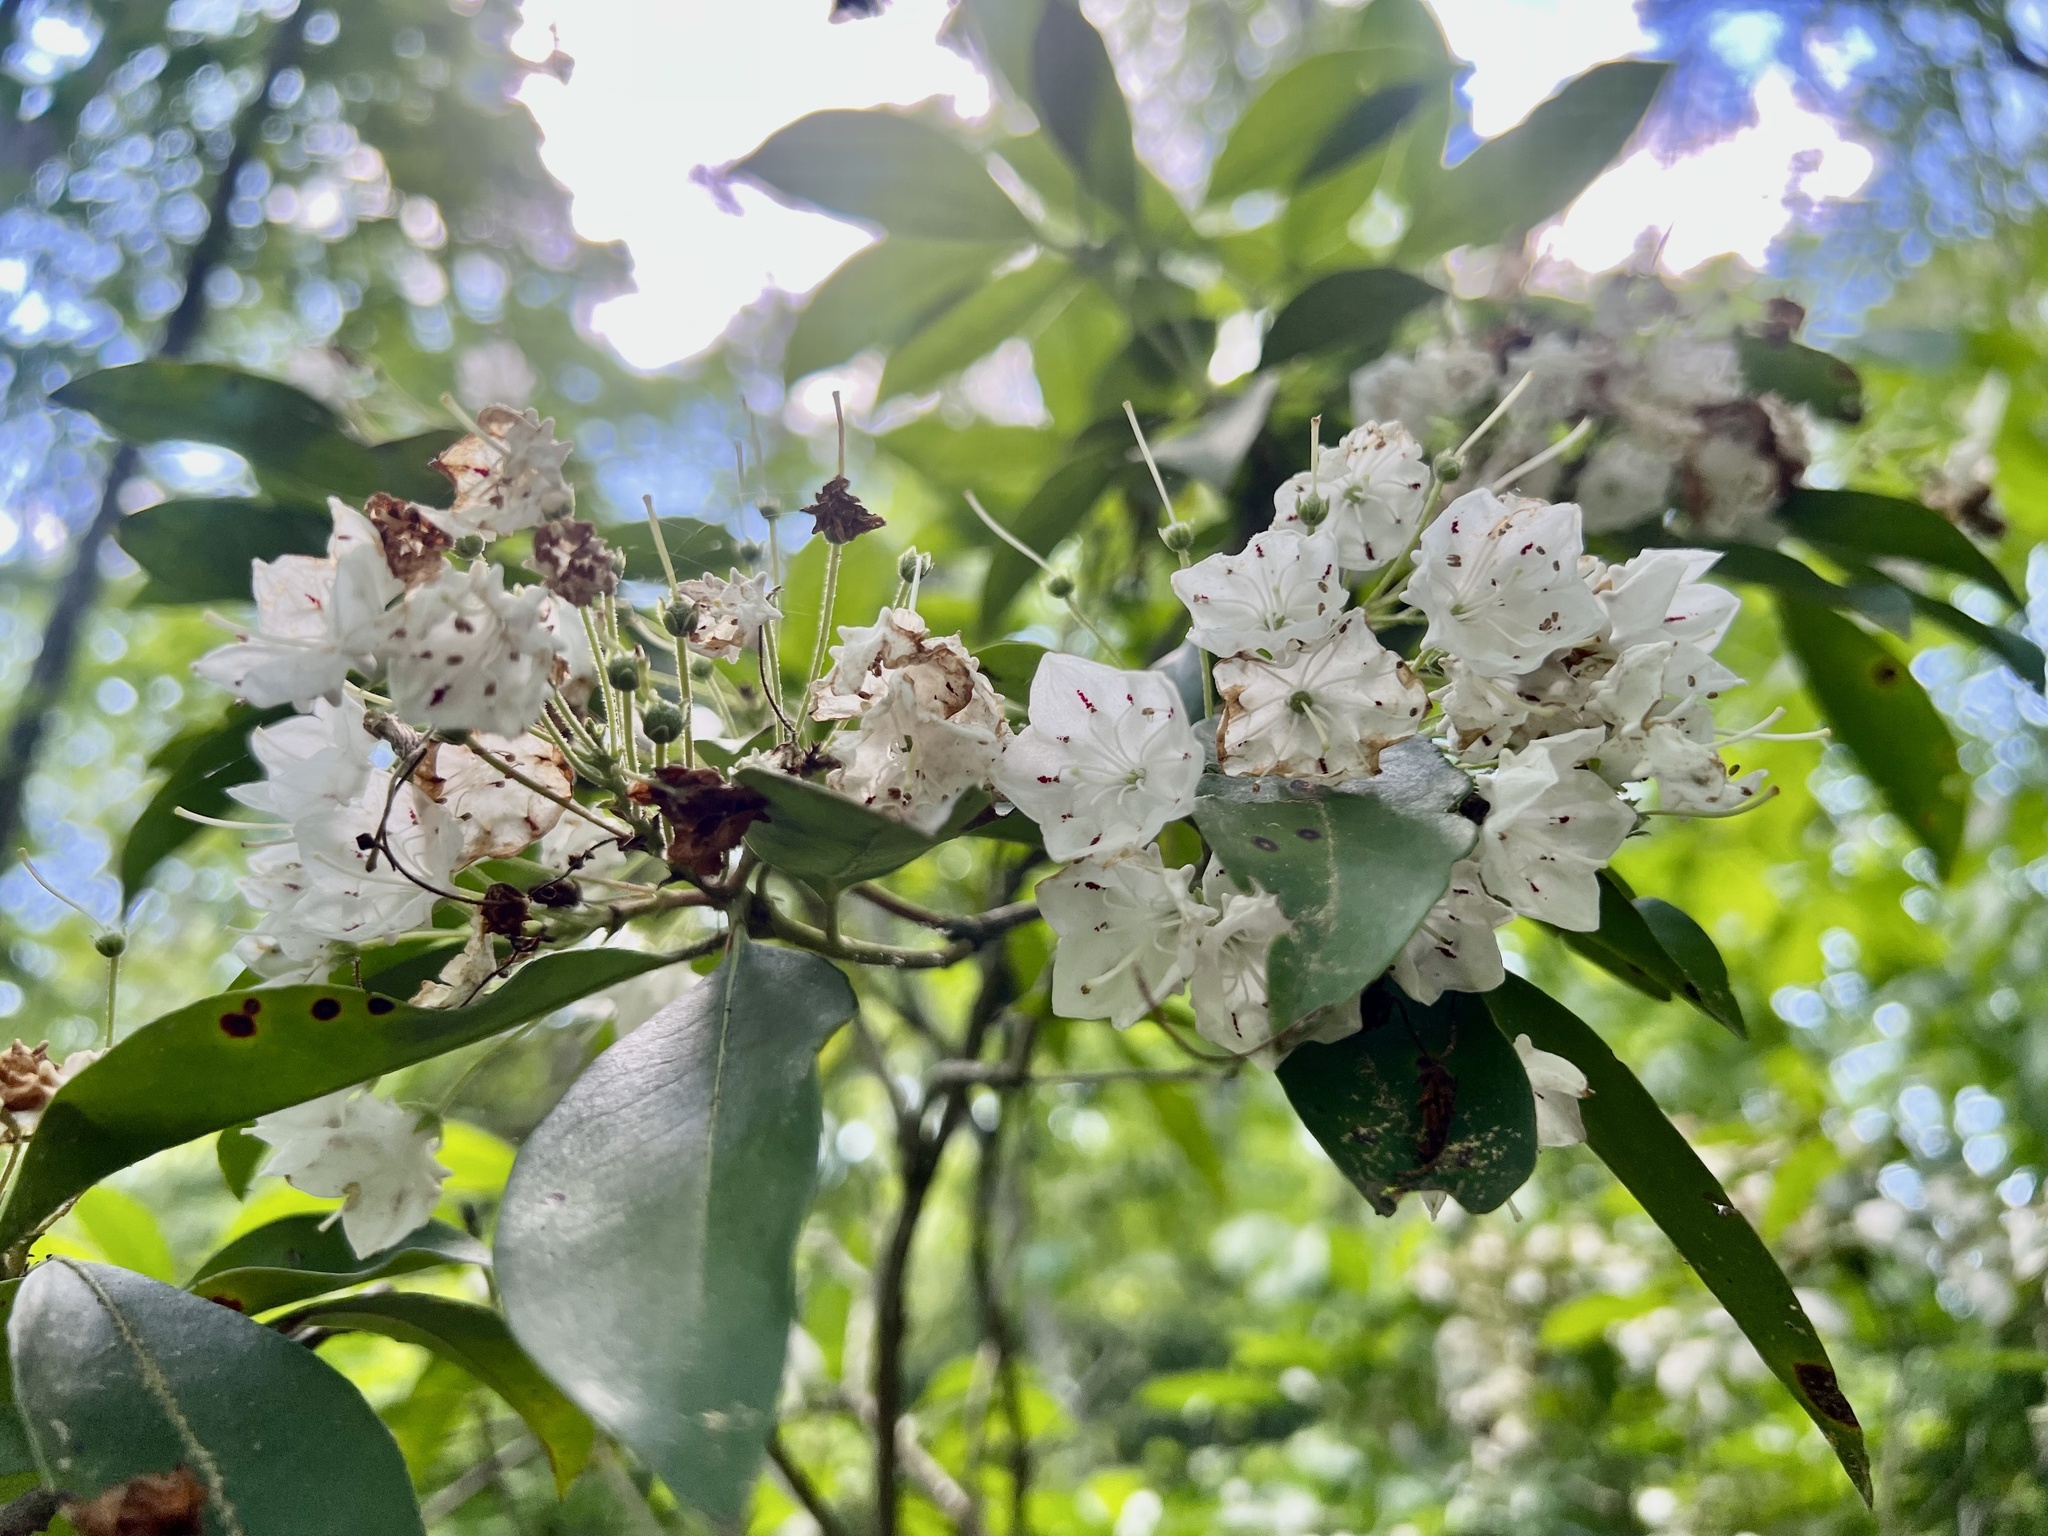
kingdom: Plantae
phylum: Tracheophyta
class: Magnoliopsida
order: Ericales
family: Ericaceae
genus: Kalmia
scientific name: Kalmia latifolia
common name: Mountain-laurel
